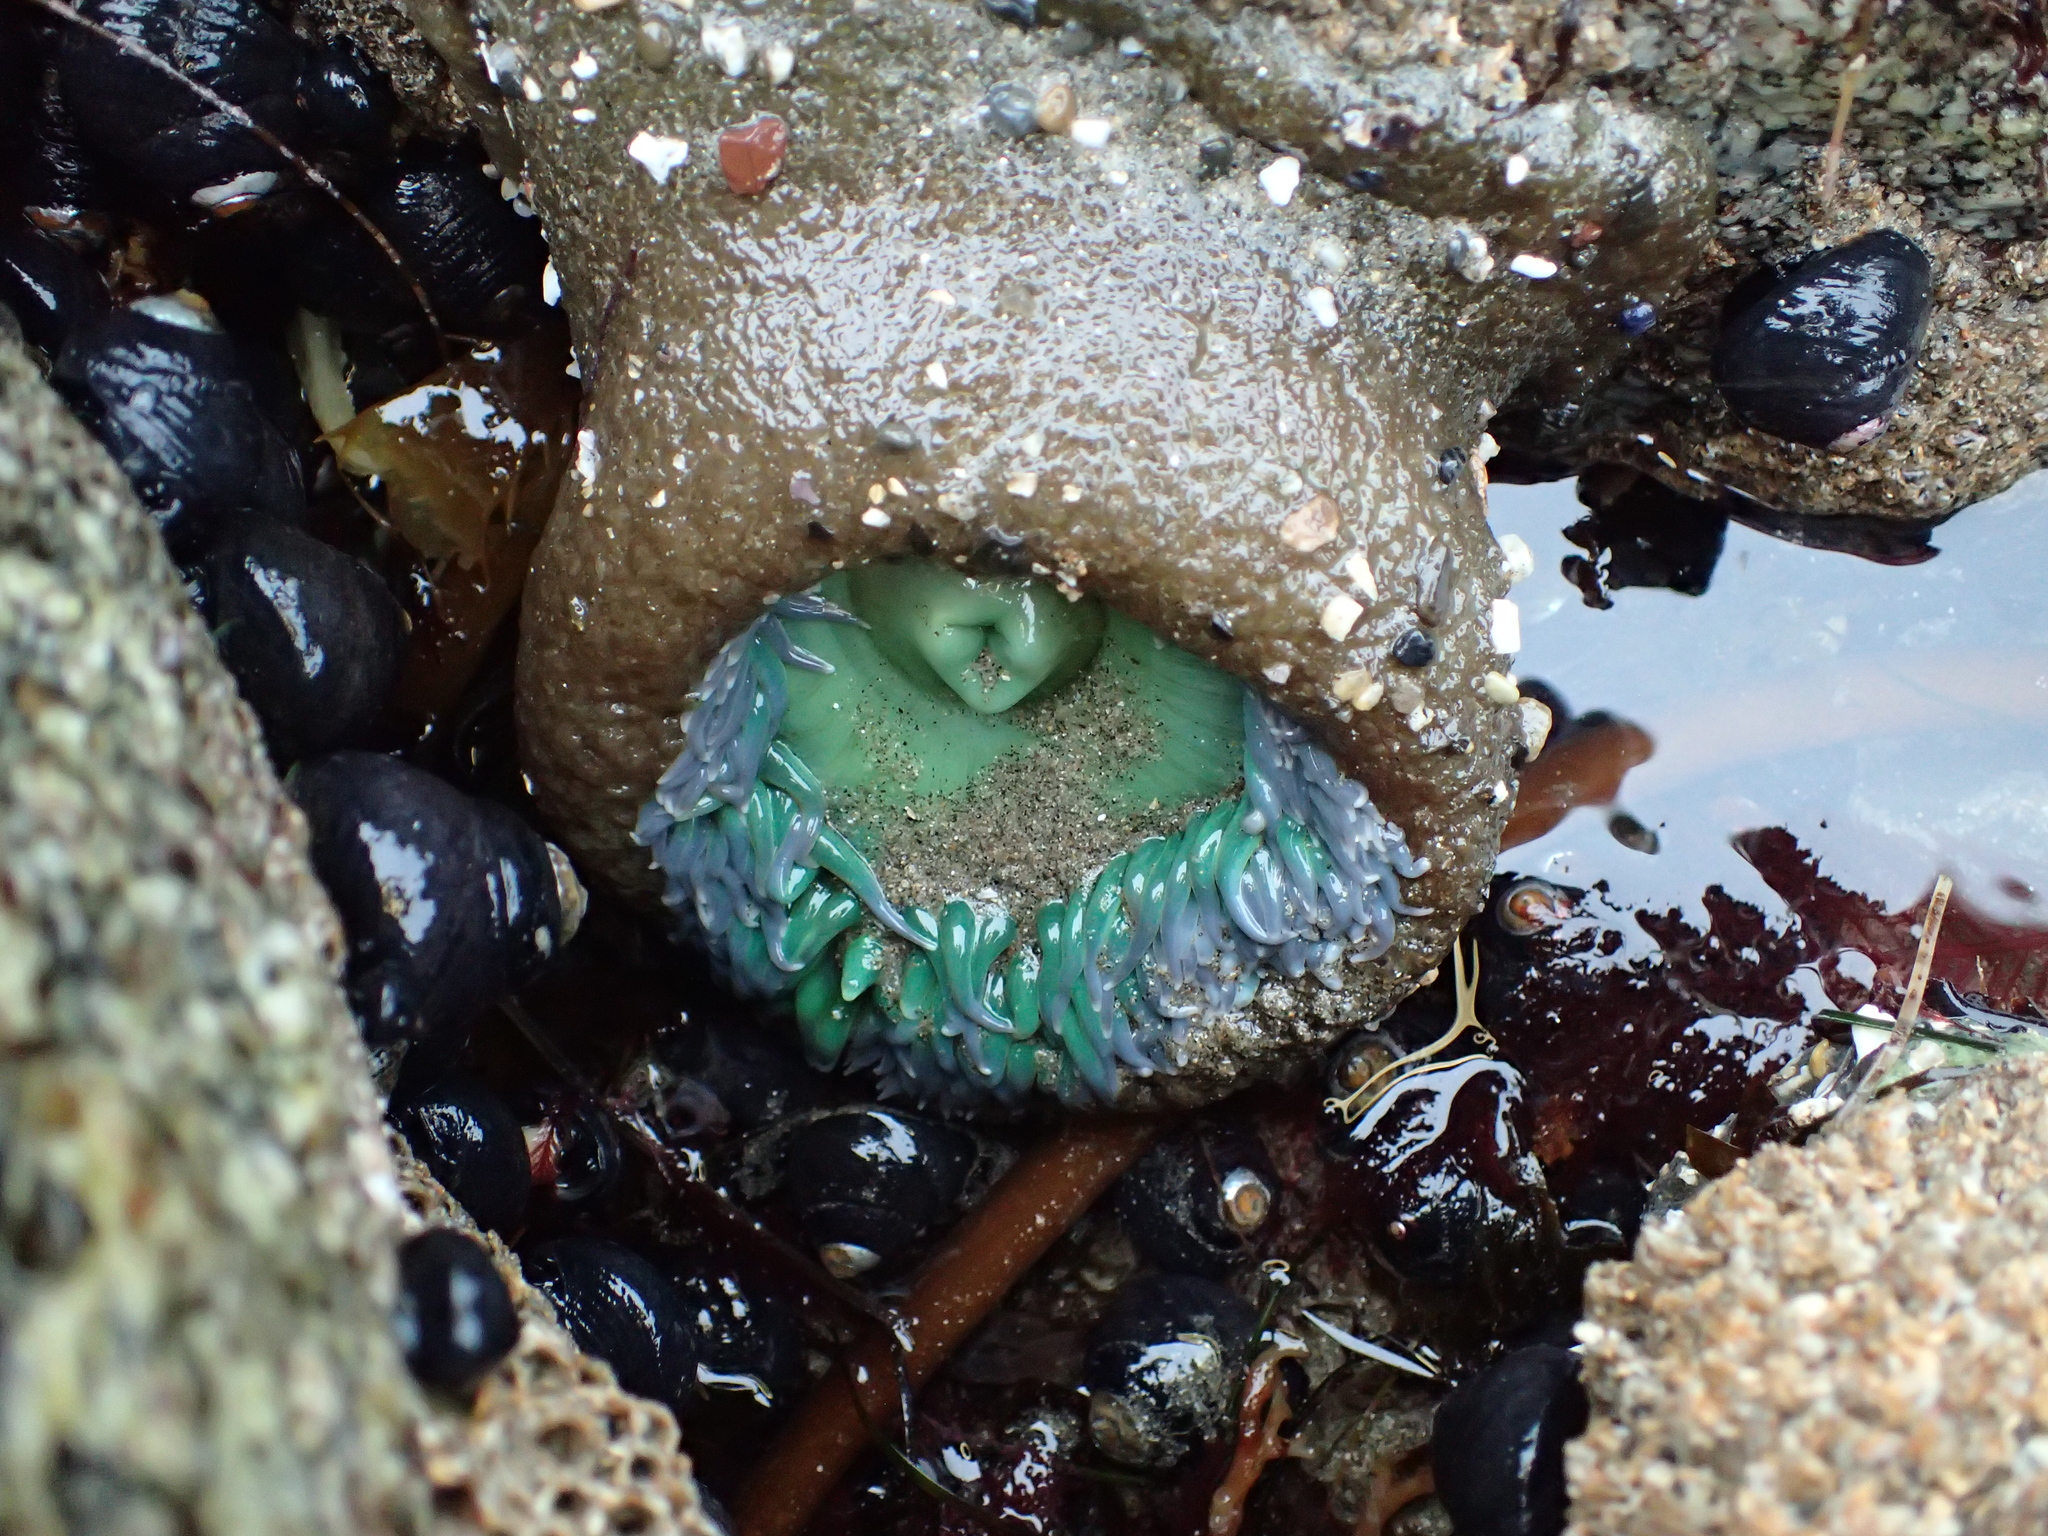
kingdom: Animalia
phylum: Cnidaria
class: Anthozoa
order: Actiniaria
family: Actiniidae
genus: Anthopleura
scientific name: Anthopleura xanthogrammica
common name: Giant green anemone
